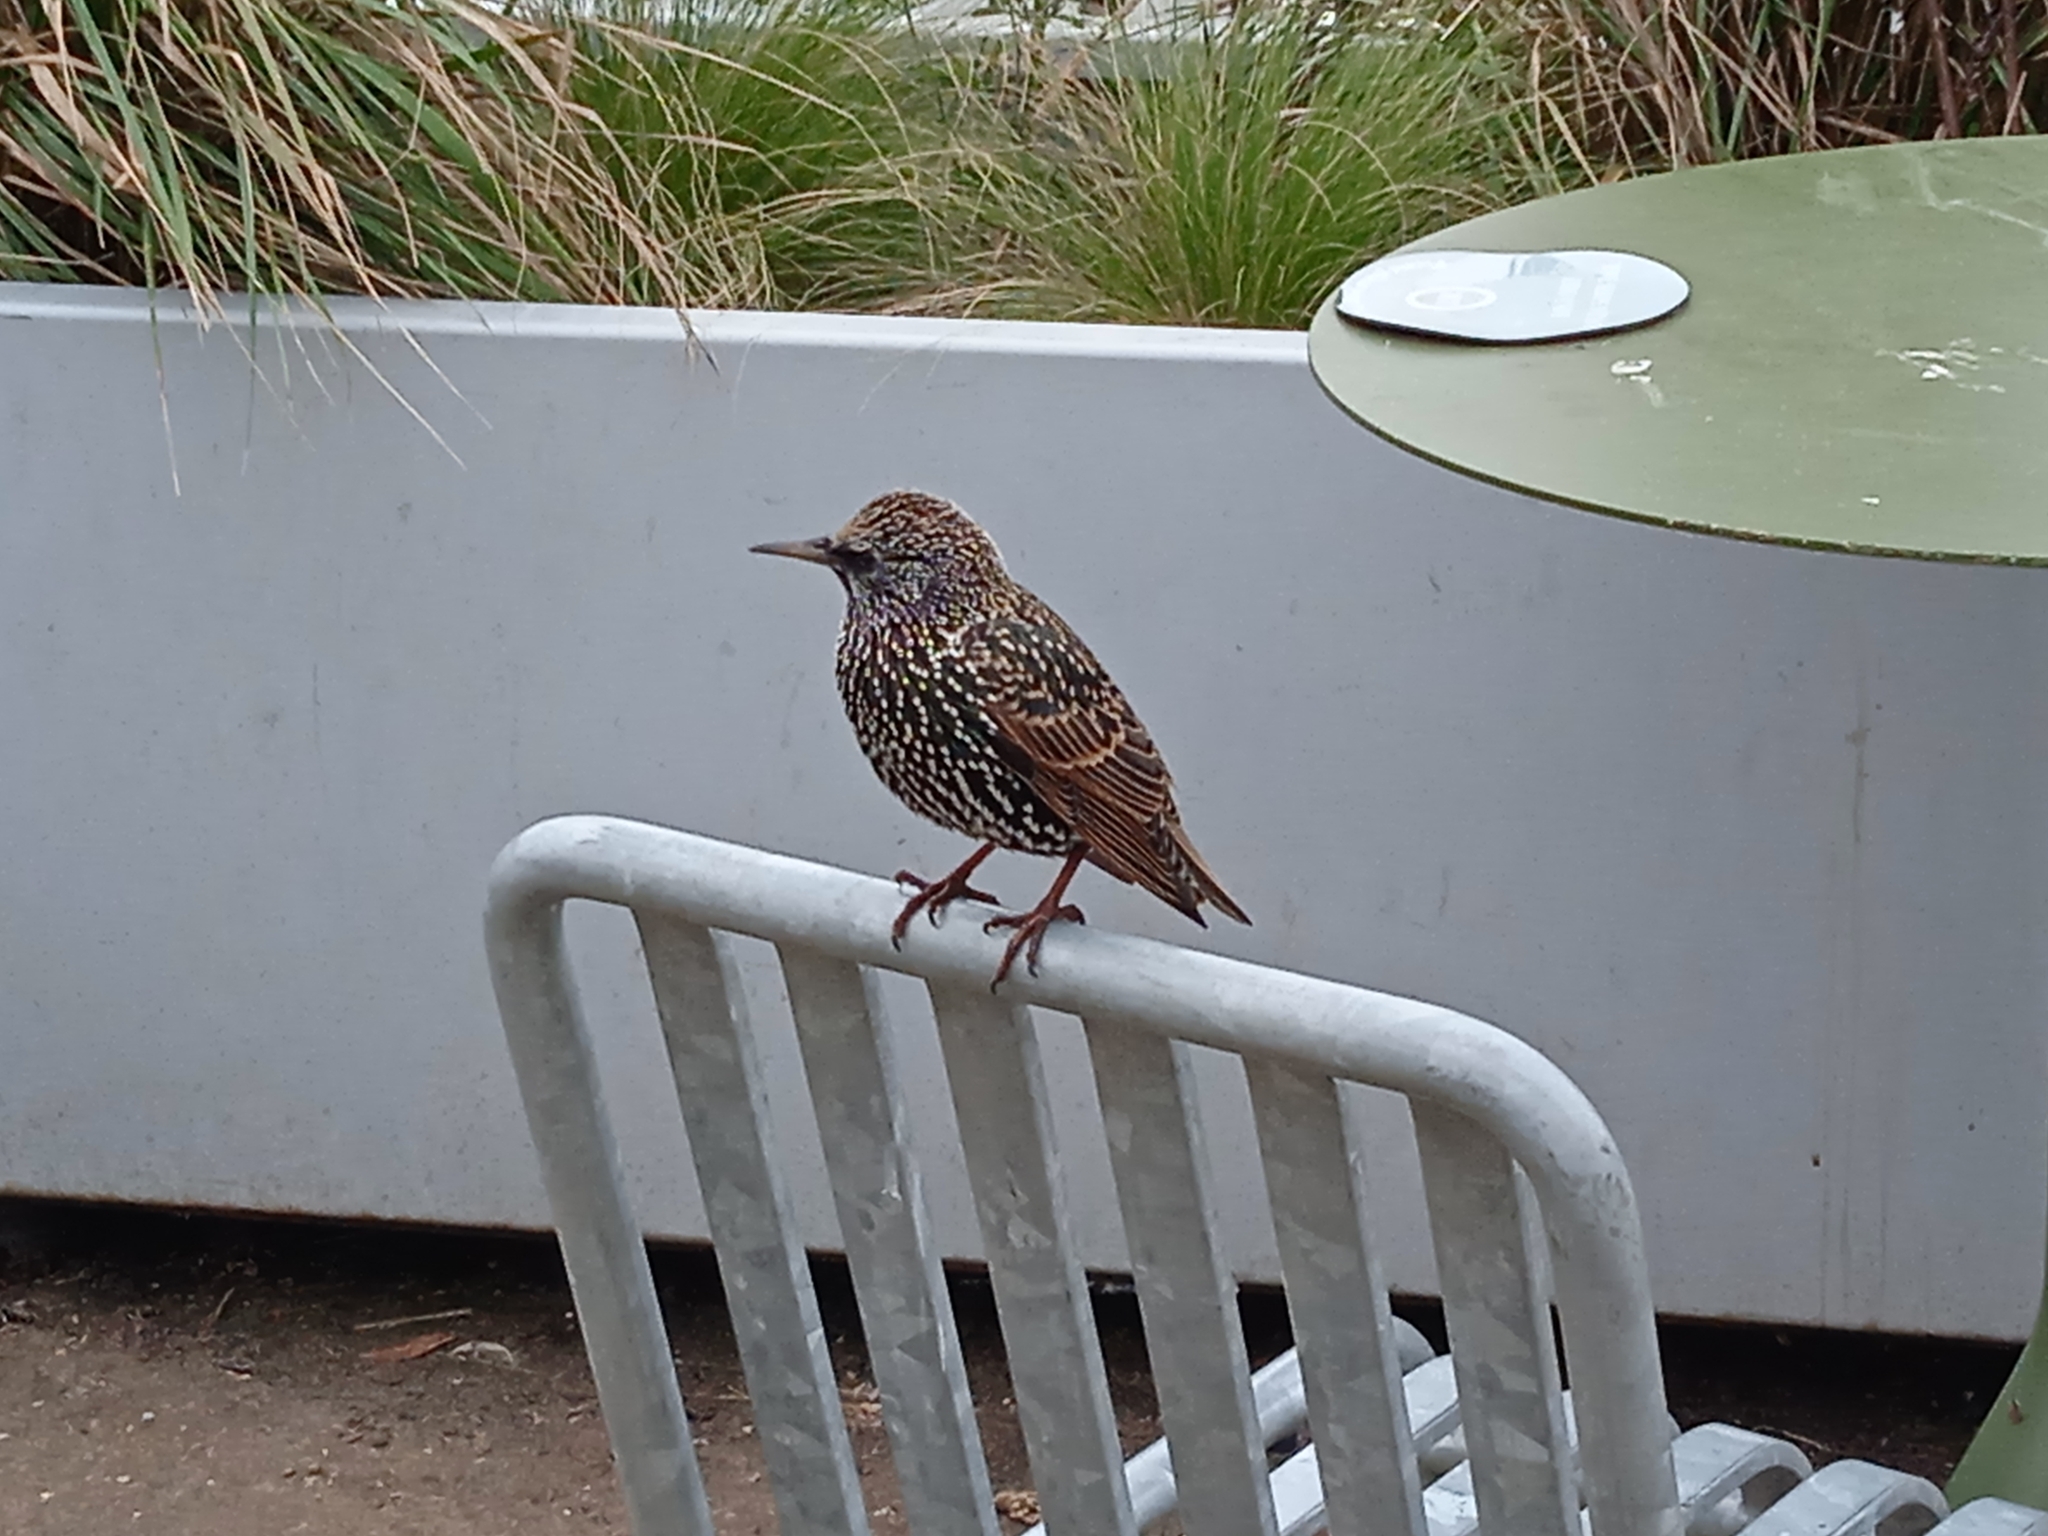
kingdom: Animalia
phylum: Chordata
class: Aves
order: Passeriformes
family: Sturnidae
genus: Sturnus
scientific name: Sturnus vulgaris
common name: Common starling
